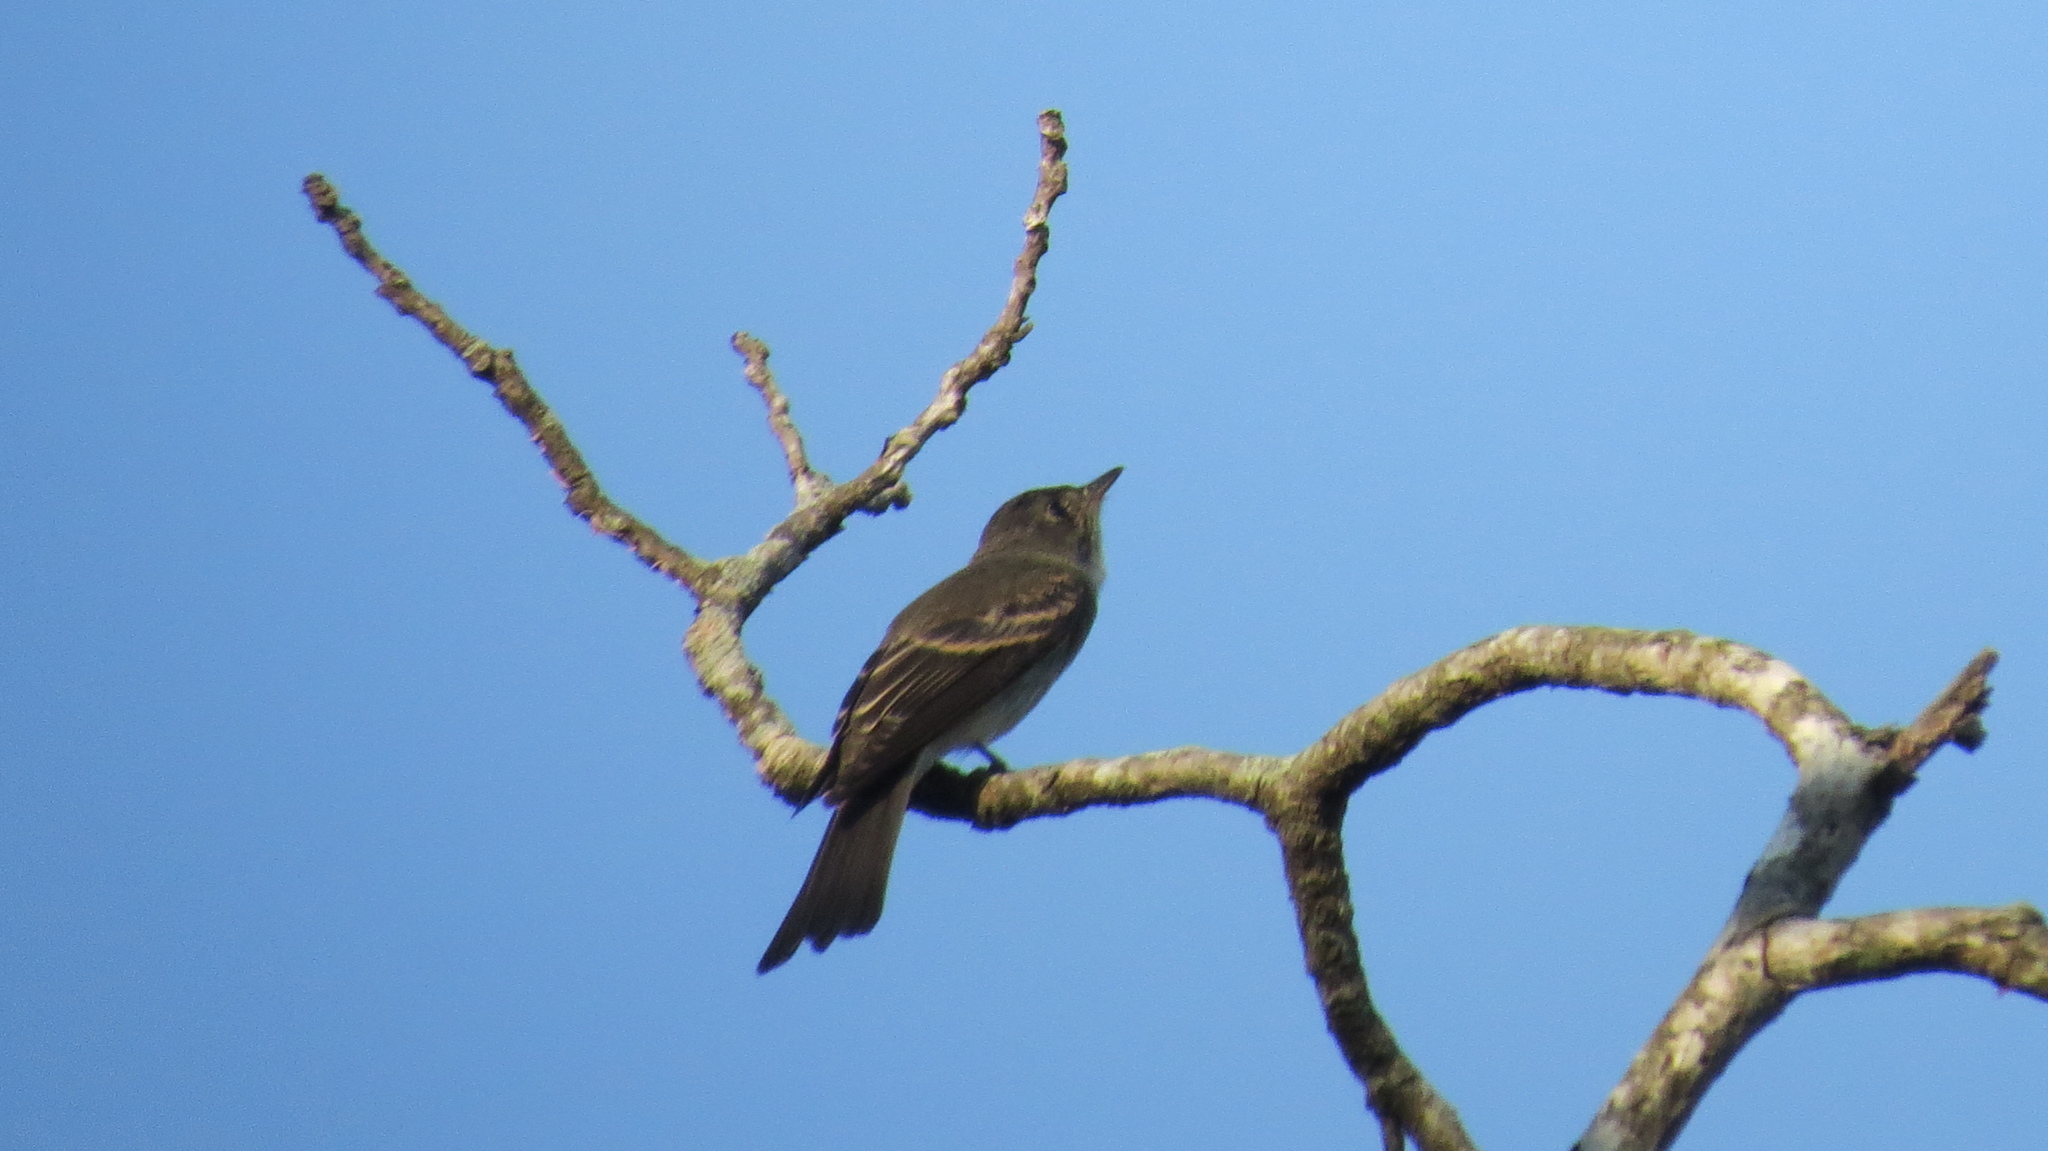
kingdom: Animalia
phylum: Chordata
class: Aves
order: Passeriformes
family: Tyrannidae
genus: Contopus
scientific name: Contopus virens
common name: Eastern wood-pewee
